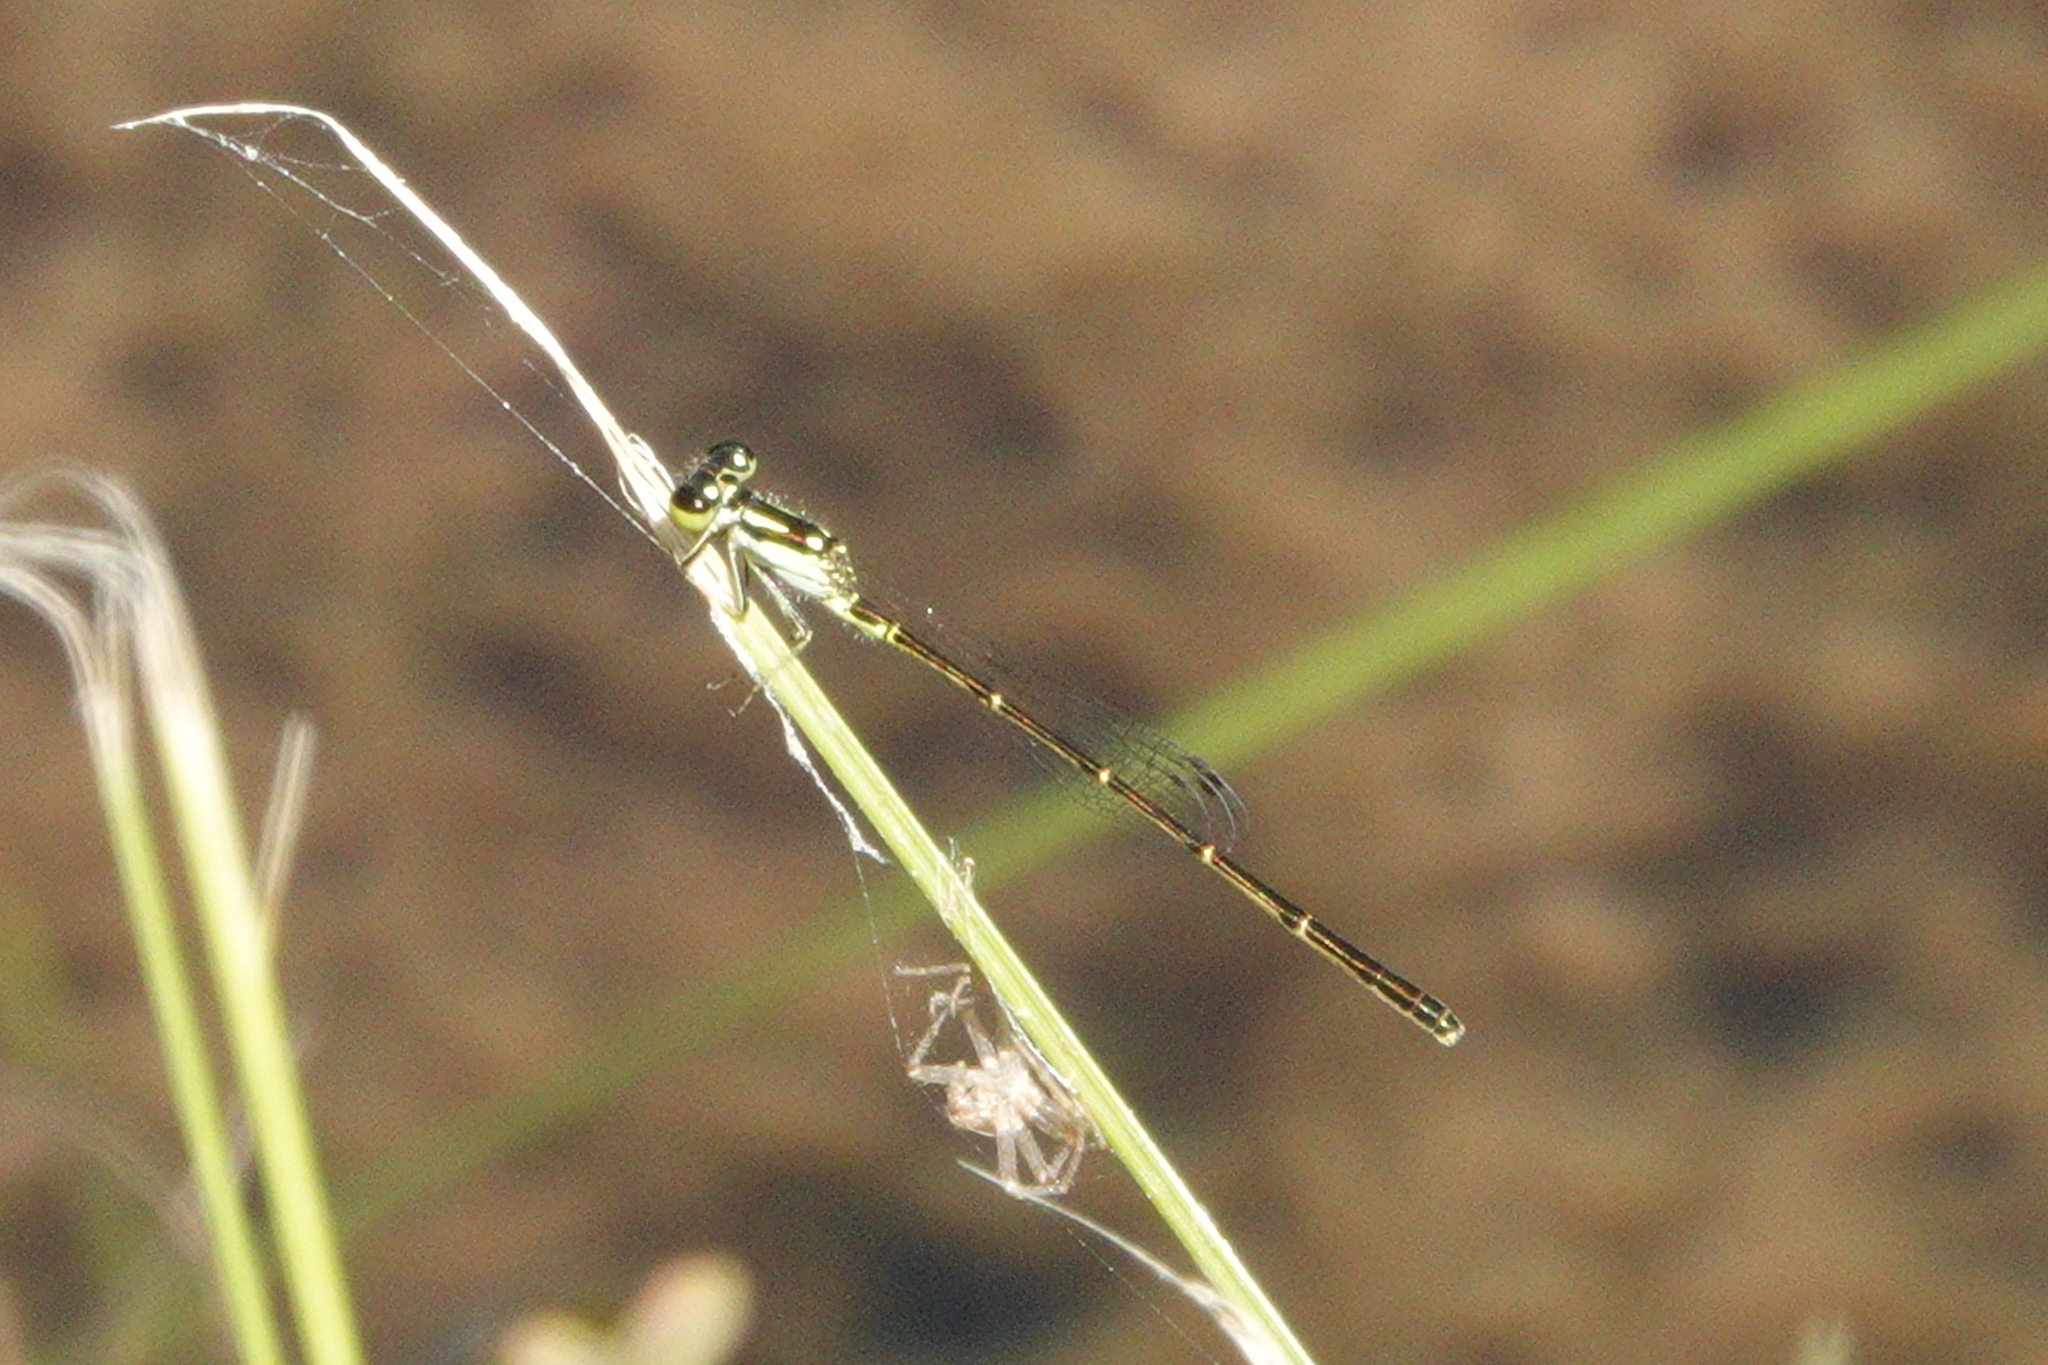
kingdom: Animalia
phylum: Arthropoda
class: Insecta
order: Odonata
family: Coenagrionidae
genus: Ischnura
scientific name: Ischnura posita
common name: Fragile forktail
